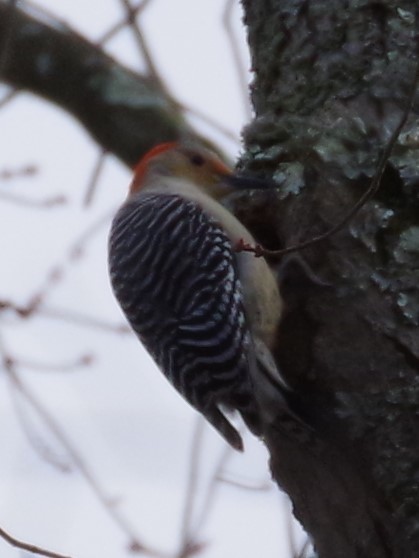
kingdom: Animalia
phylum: Chordata
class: Aves
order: Piciformes
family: Picidae
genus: Melanerpes
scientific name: Melanerpes carolinus
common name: Red-bellied woodpecker
